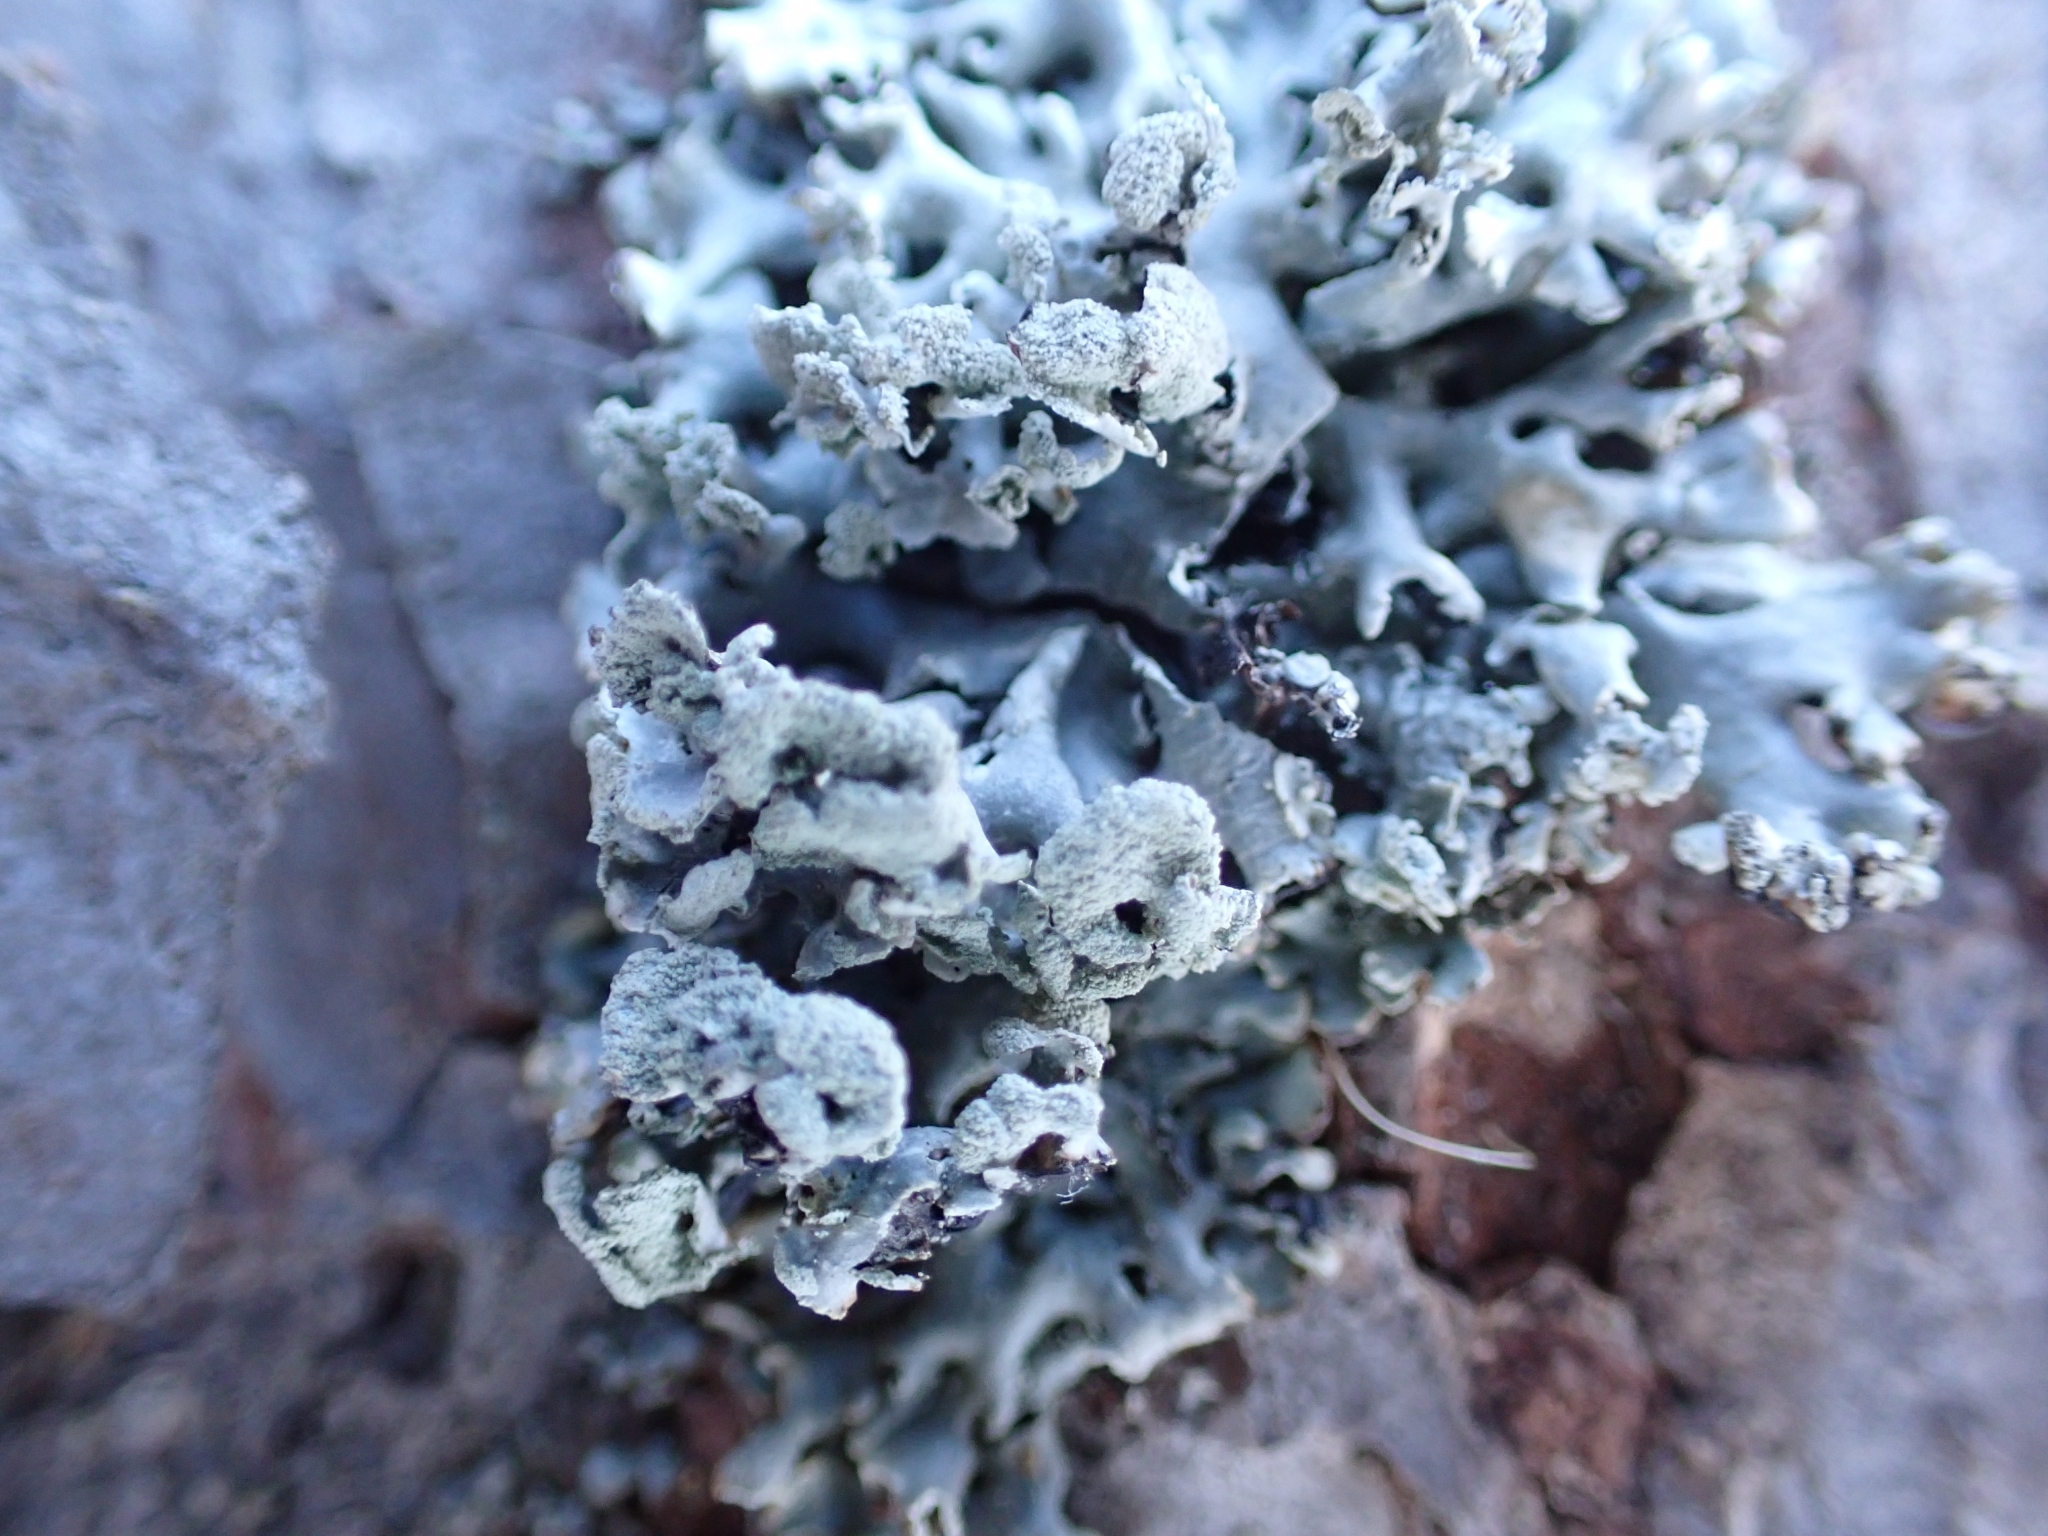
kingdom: Fungi
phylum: Ascomycota
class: Lecanoromycetes
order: Lecanorales
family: Parmeliaceae
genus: Hypogymnia
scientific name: Hypogymnia physodes
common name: Dark crottle
